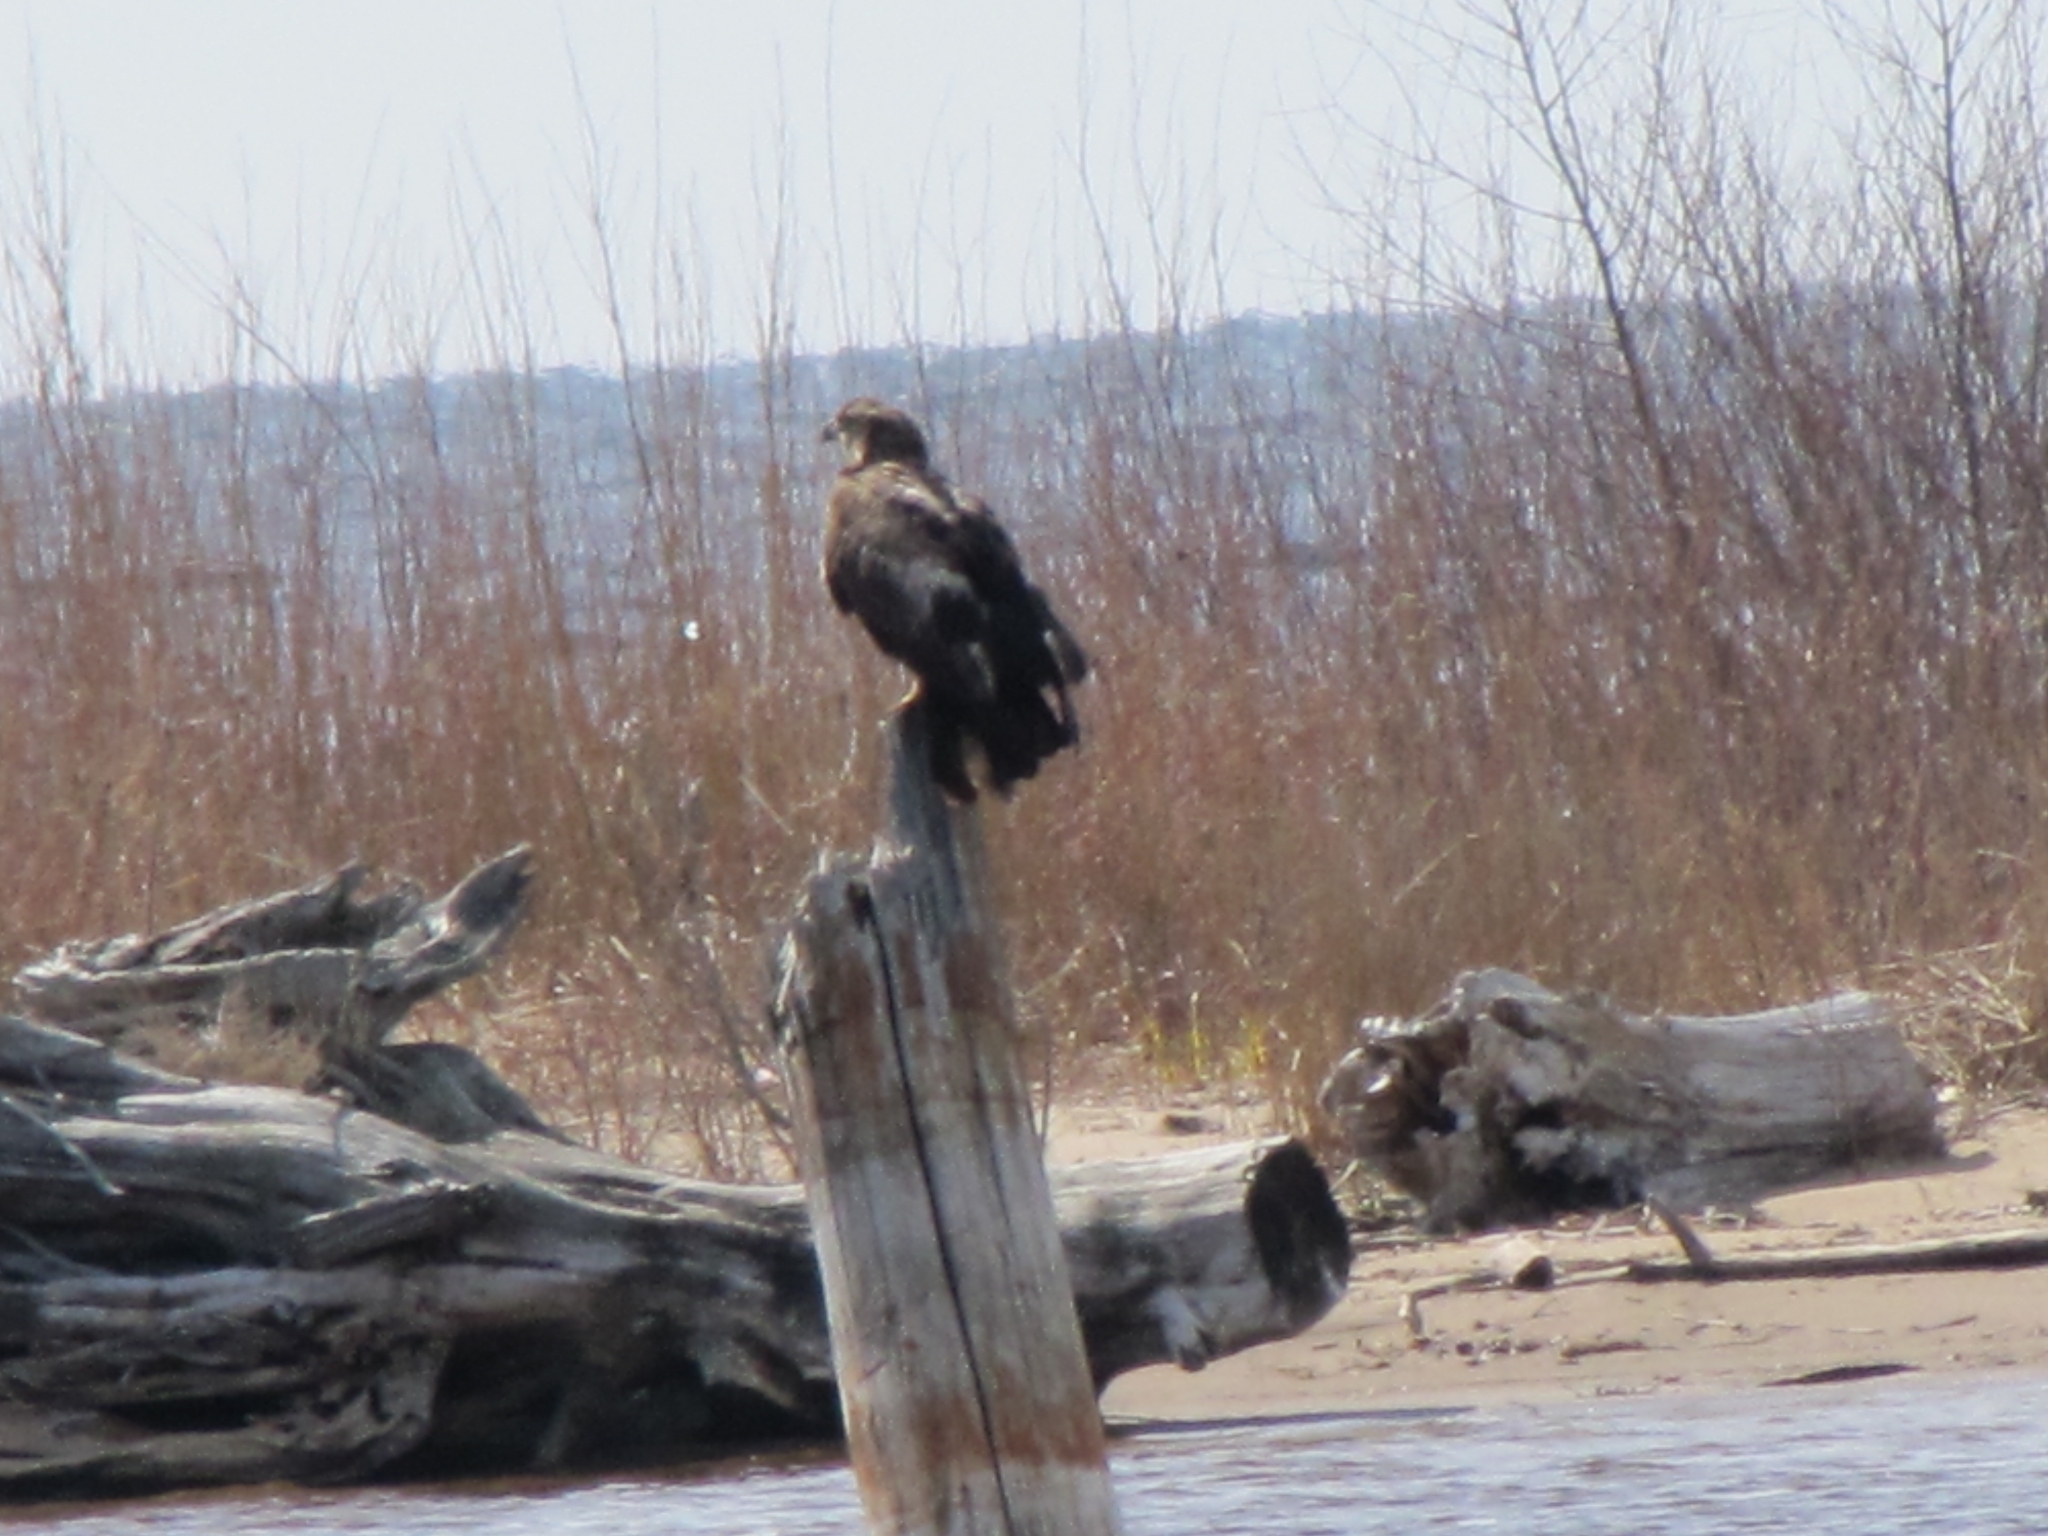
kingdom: Animalia
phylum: Chordata
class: Aves
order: Accipitriformes
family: Accipitridae
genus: Haliaeetus
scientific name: Haliaeetus leucocephalus
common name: Bald eagle
